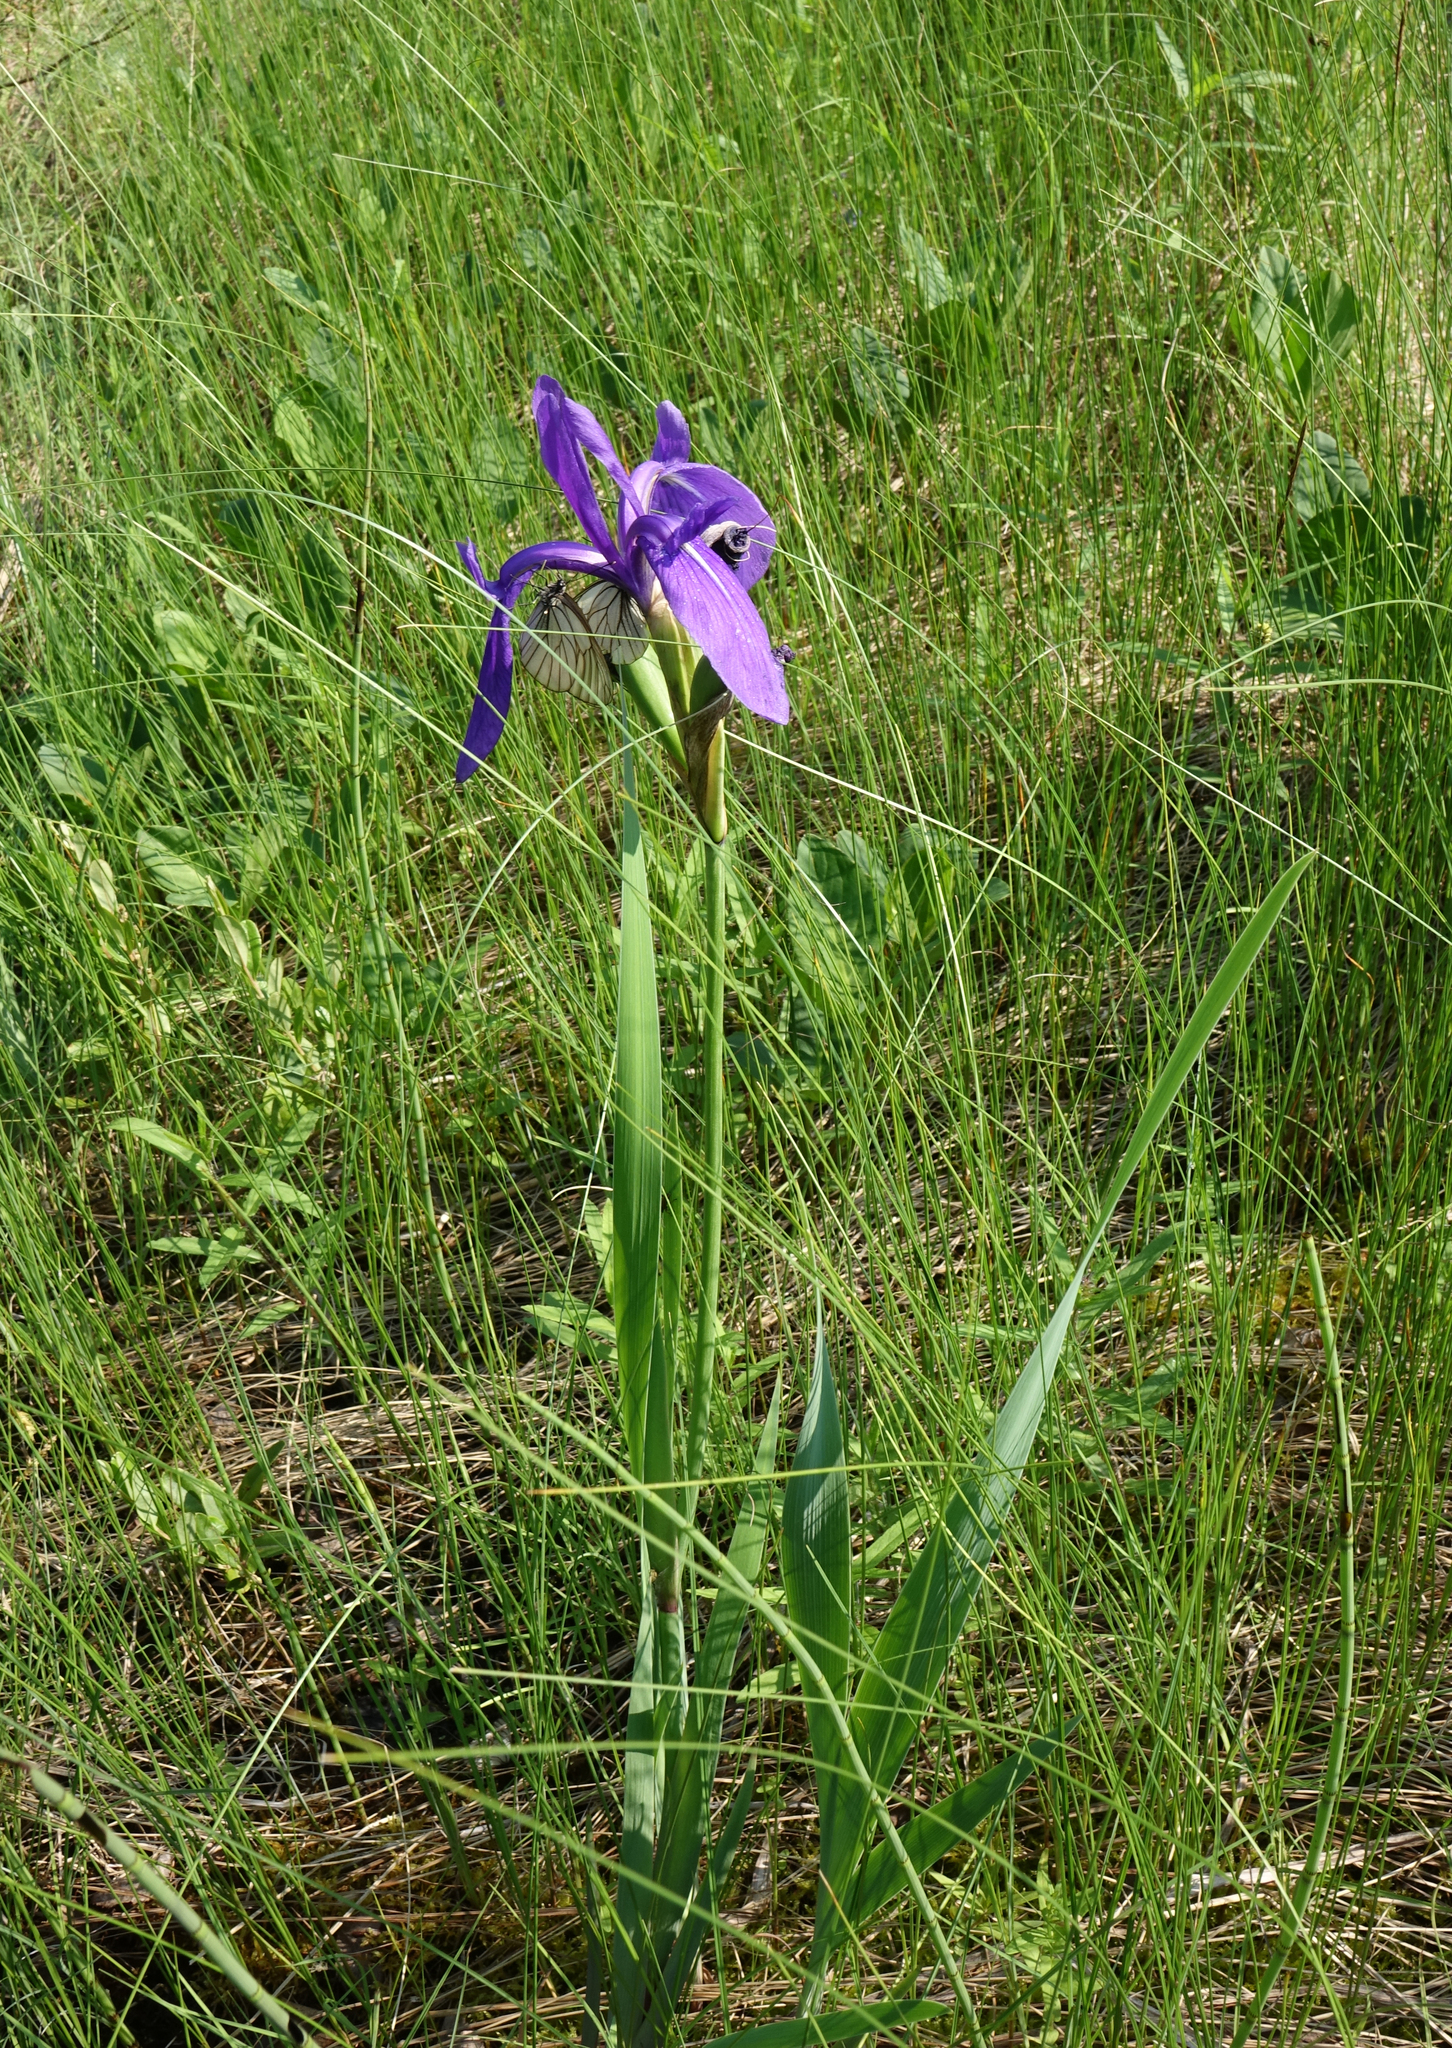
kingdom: Plantae
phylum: Tracheophyta
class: Liliopsida
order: Asparagales
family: Iridaceae
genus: Iris
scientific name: Iris laevigata
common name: Japanese iris
